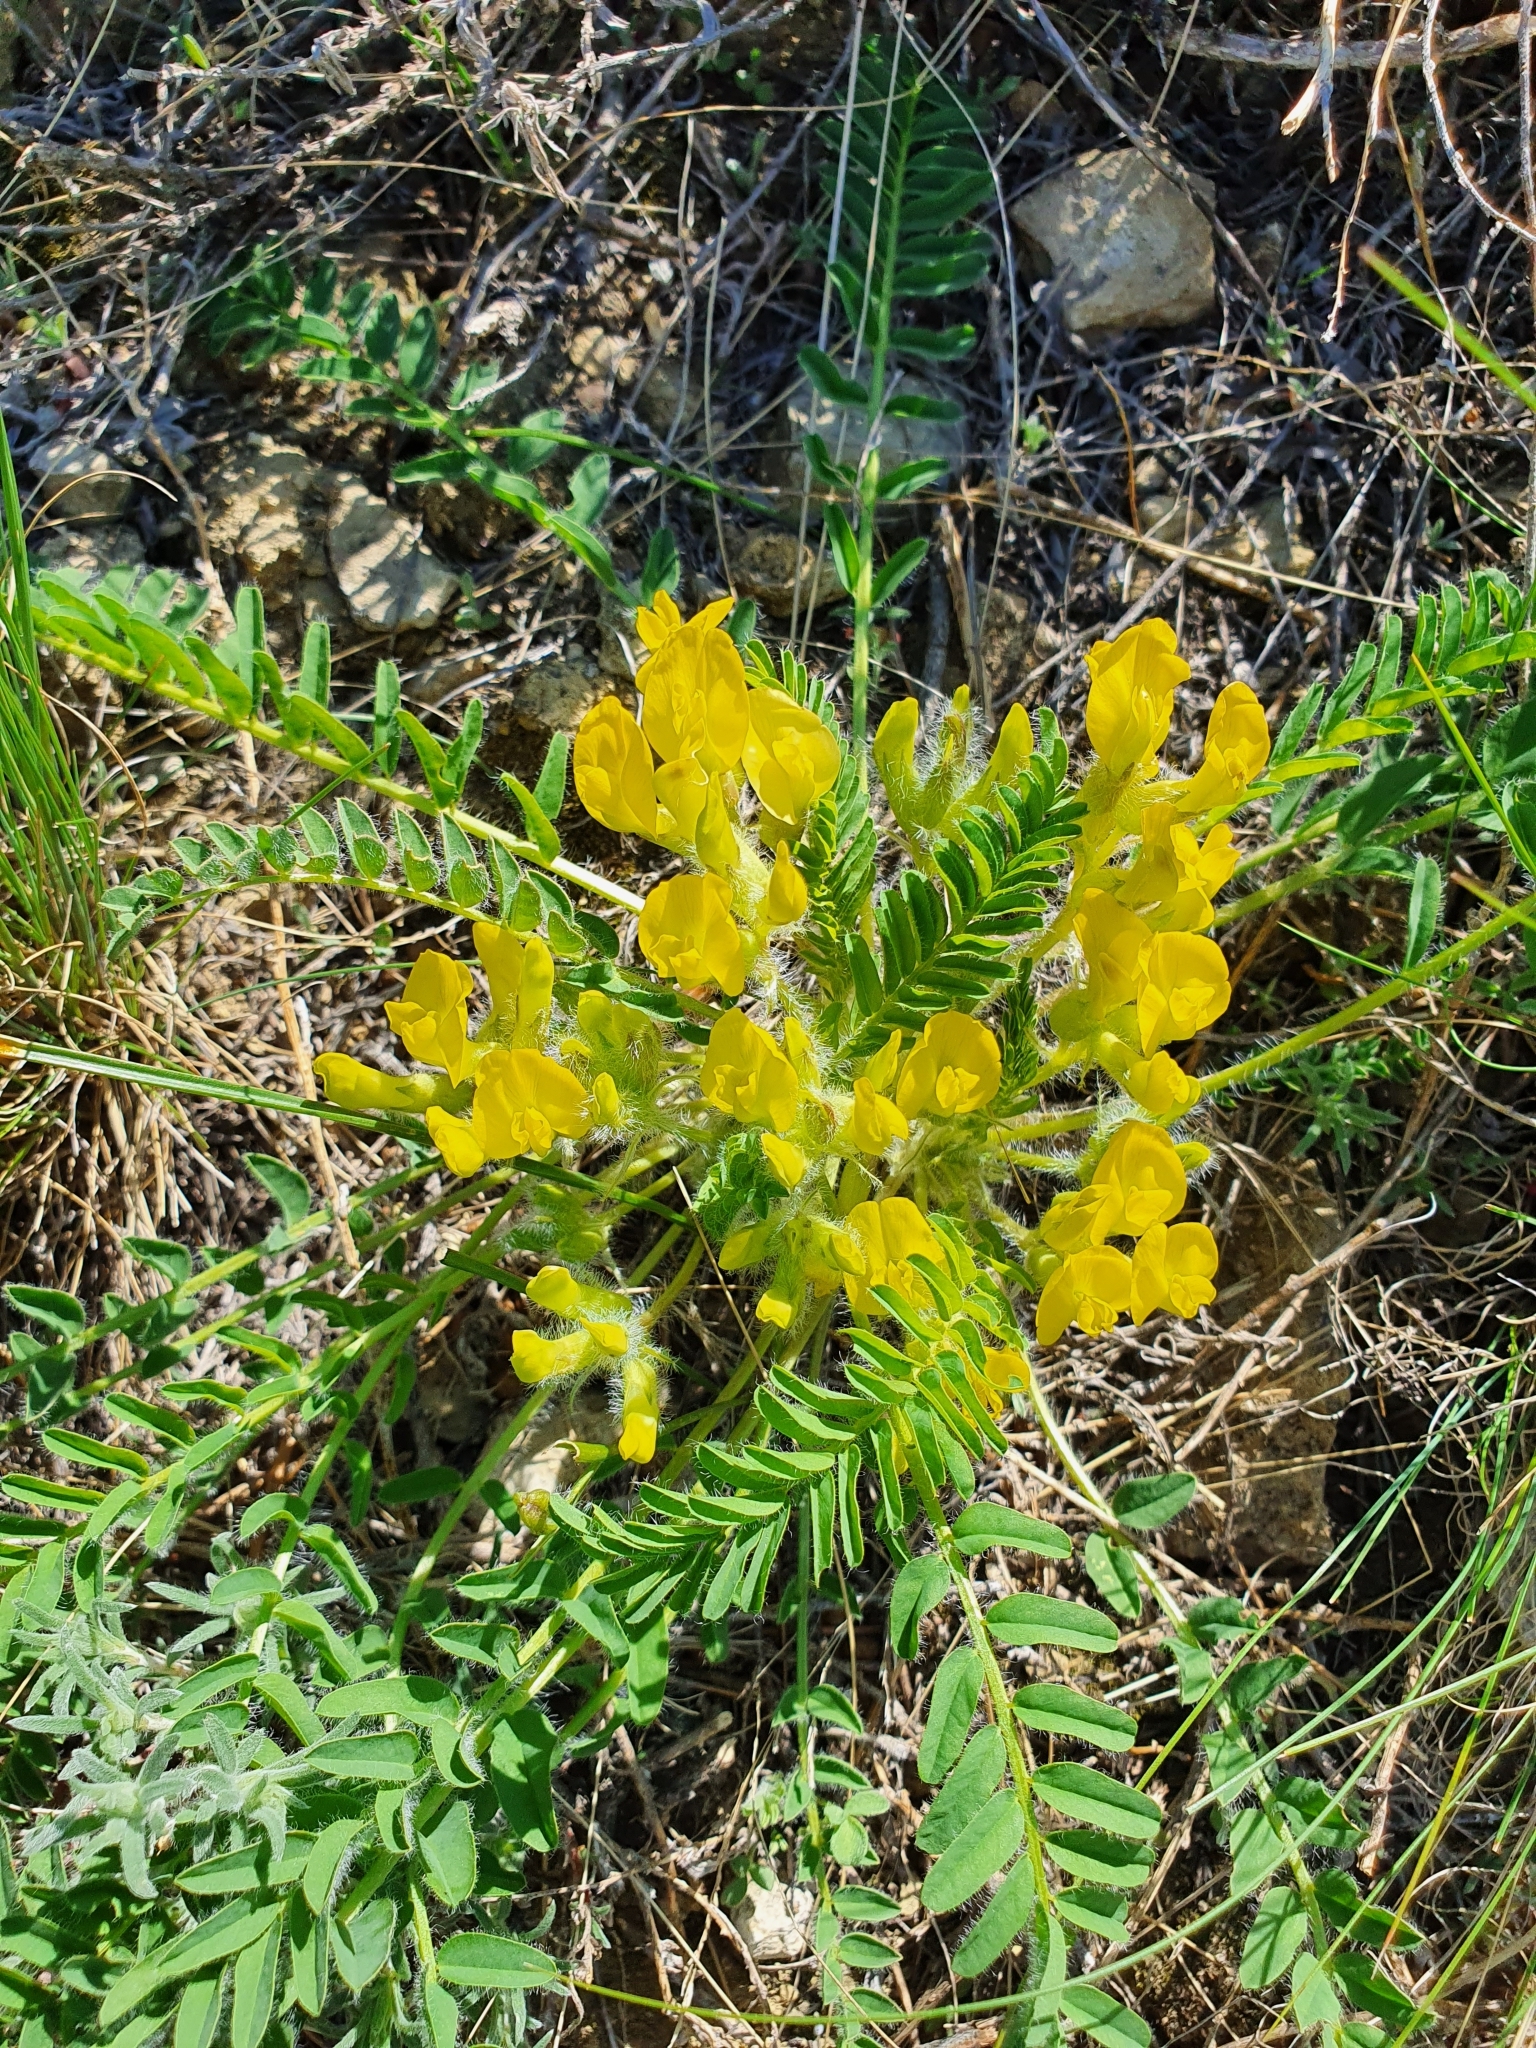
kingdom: Plantae
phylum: Tracheophyta
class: Magnoliopsida
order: Fabales
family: Fabaceae
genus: Astragalus
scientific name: Astragalus wolgensis
